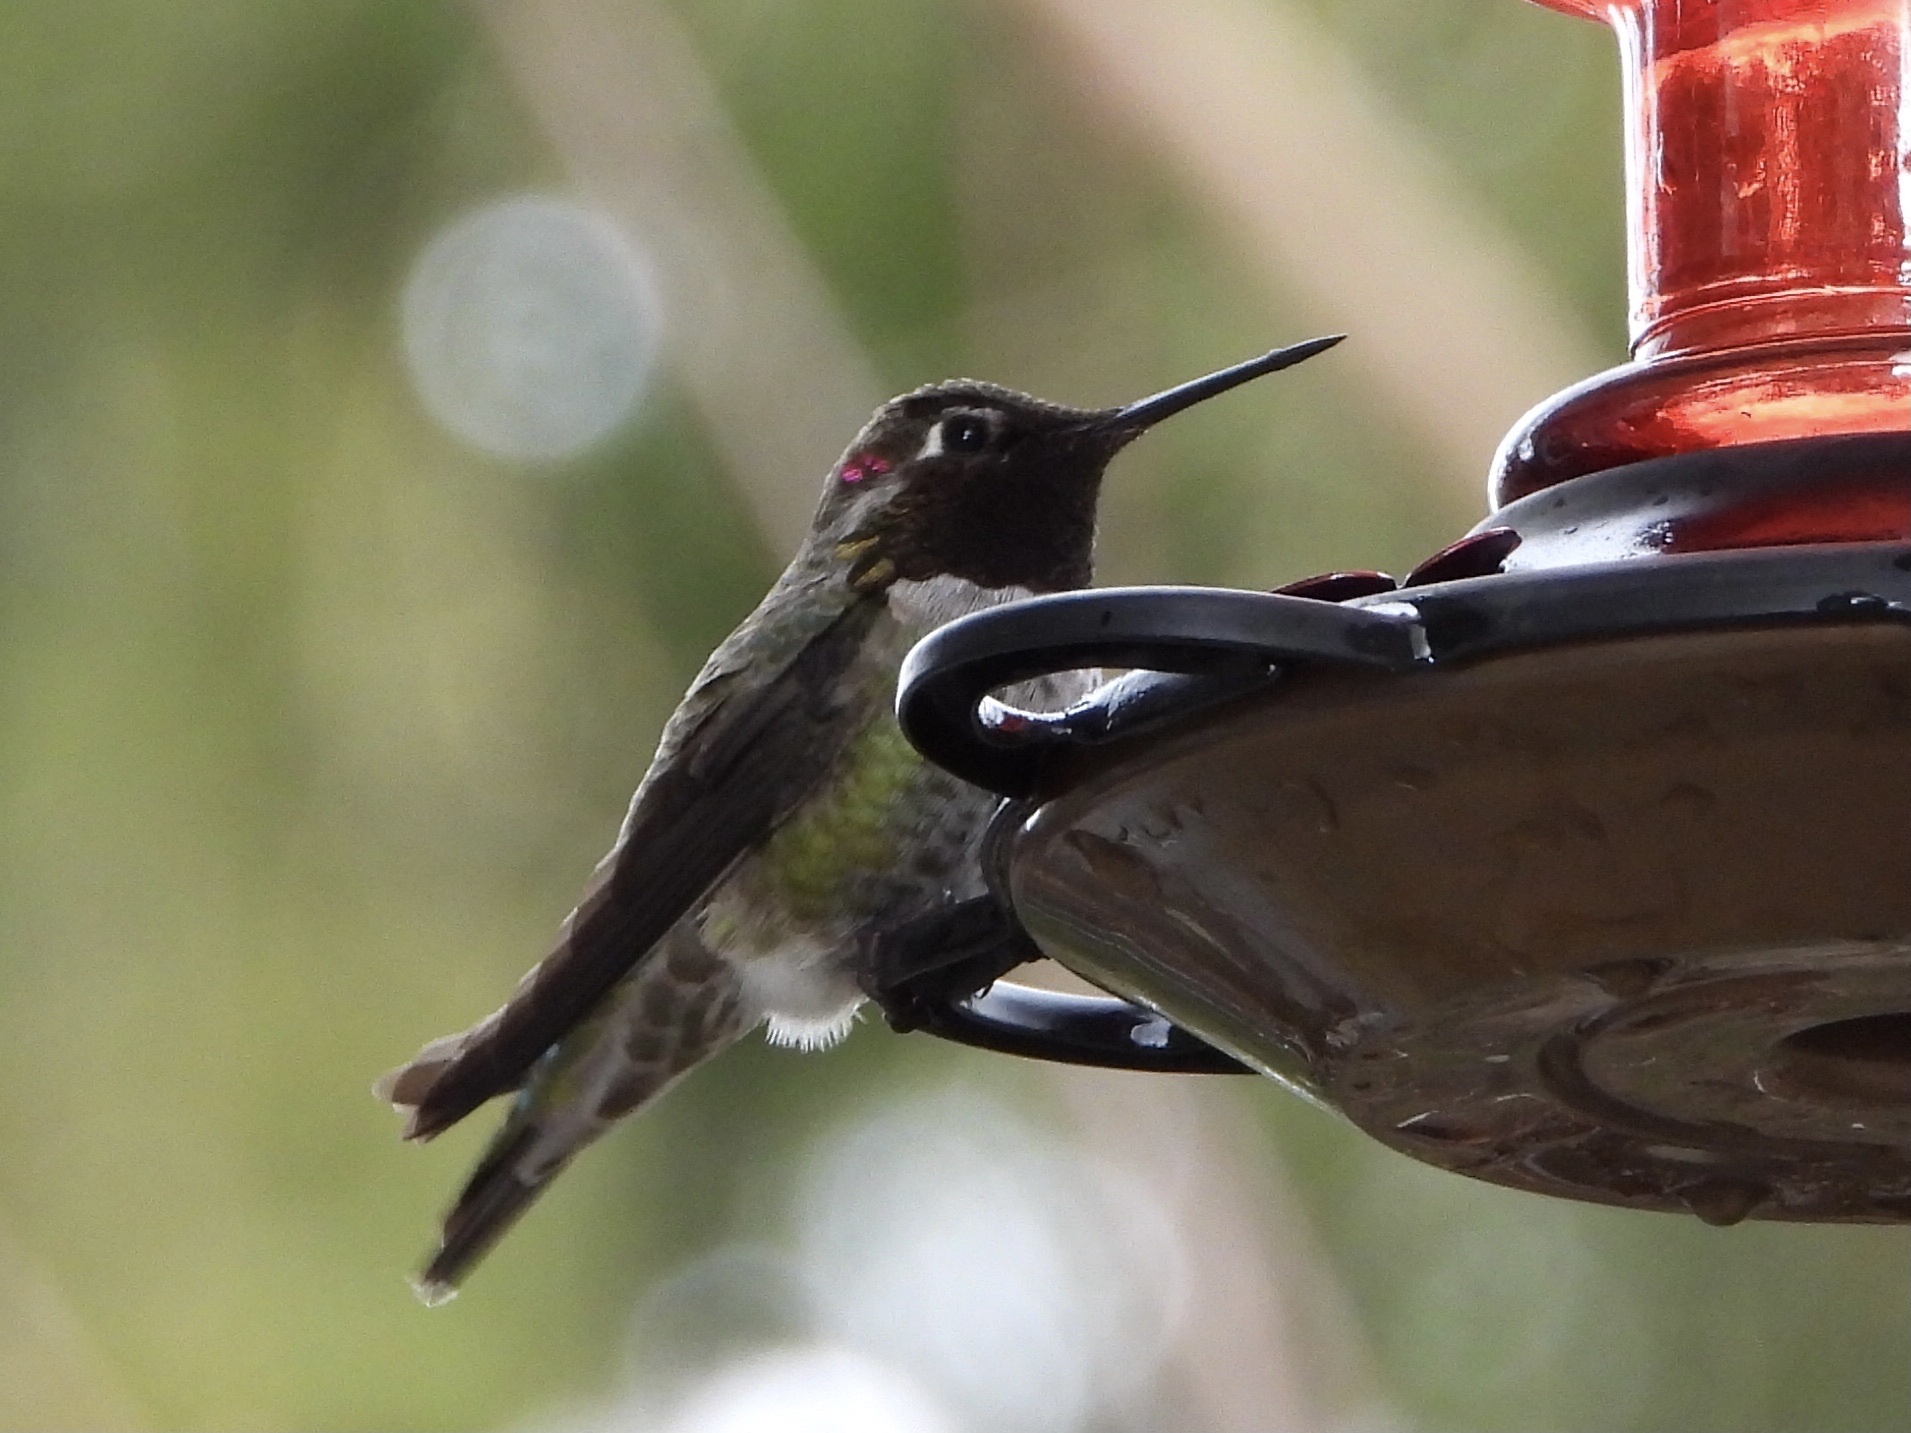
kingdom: Animalia
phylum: Chordata
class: Aves
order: Apodiformes
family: Trochilidae
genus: Calypte
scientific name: Calypte anna
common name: Anna's hummingbird
